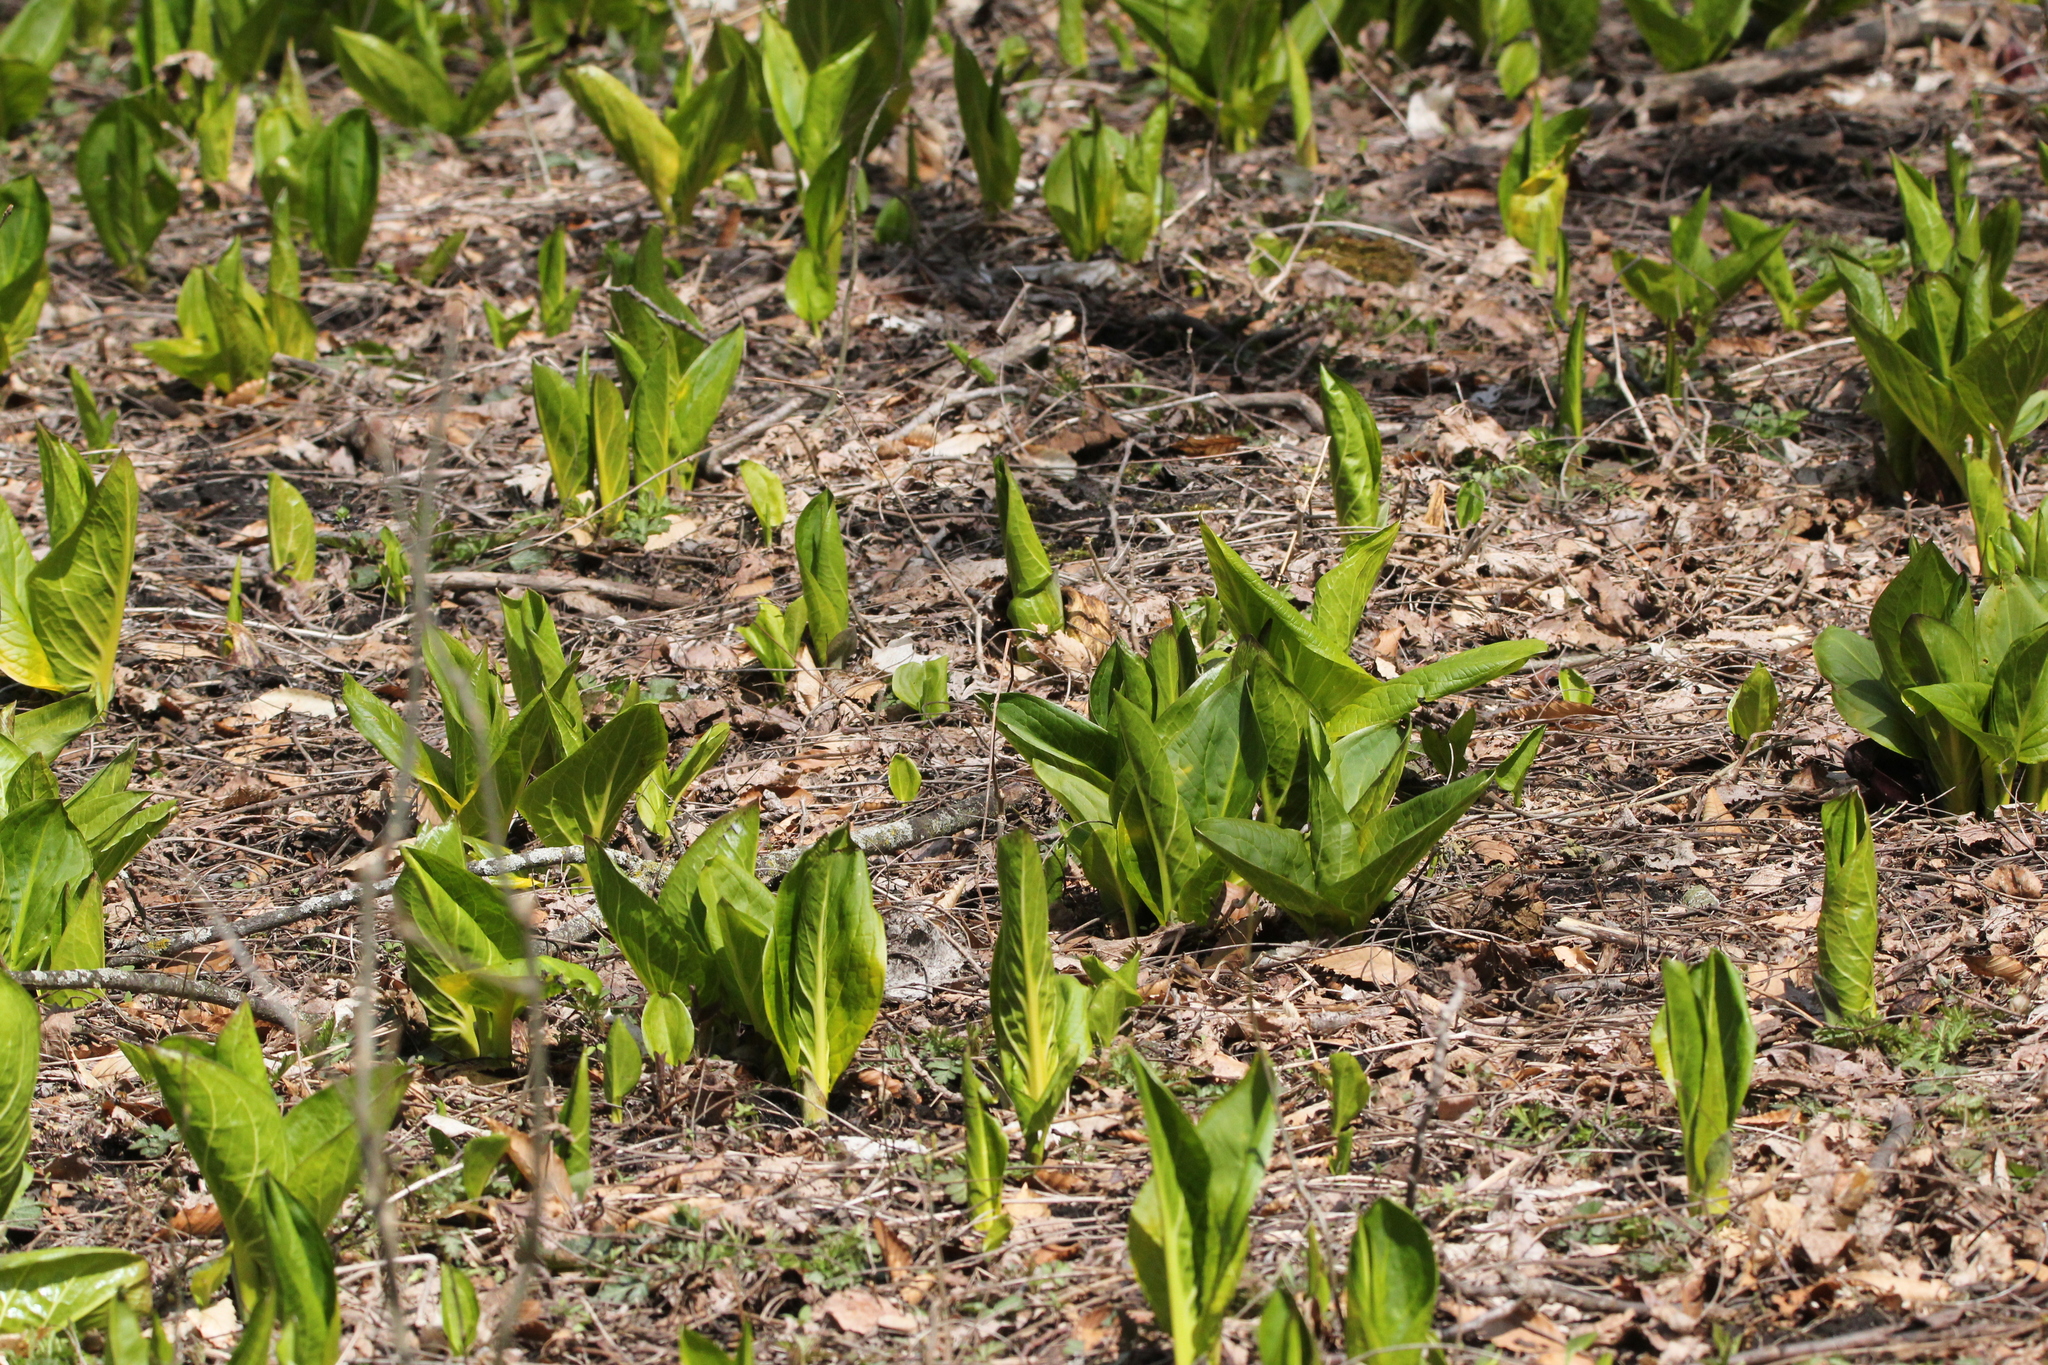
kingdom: Plantae
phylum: Tracheophyta
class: Liliopsida
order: Alismatales
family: Araceae
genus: Symplocarpus
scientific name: Symplocarpus foetidus
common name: Eastern skunk cabbage
